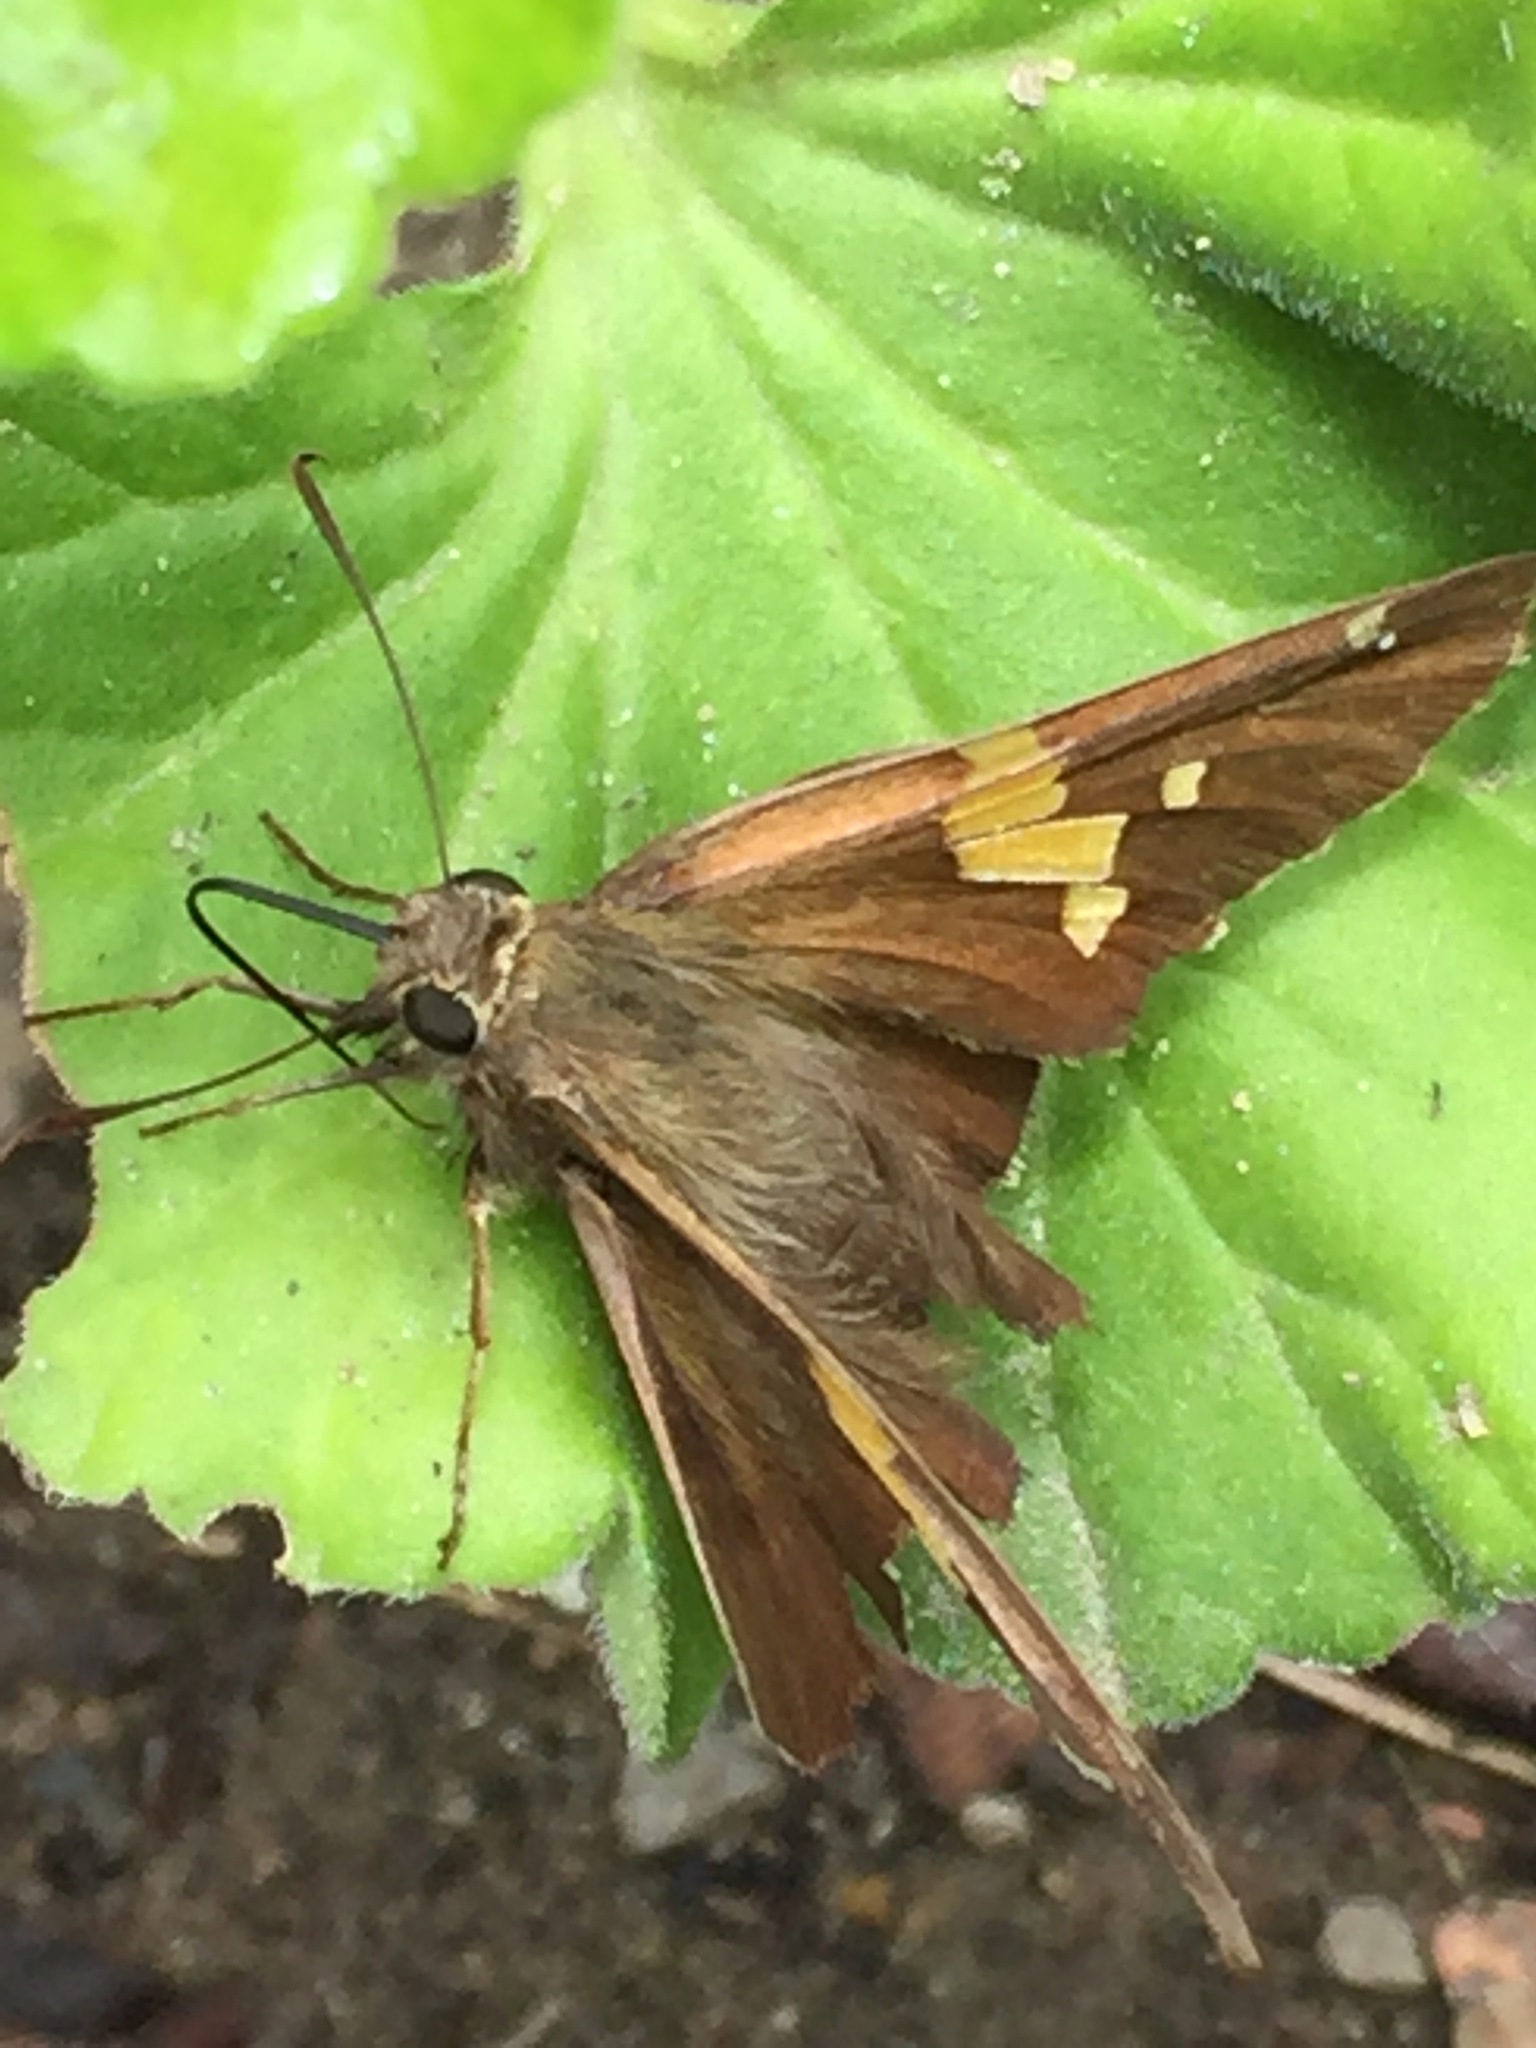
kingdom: Animalia
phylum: Arthropoda
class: Insecta
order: Lepidoptera
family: Hesperiidae
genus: Epargyreus
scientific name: Epargyreus clarus
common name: Silver-spotted skipper
